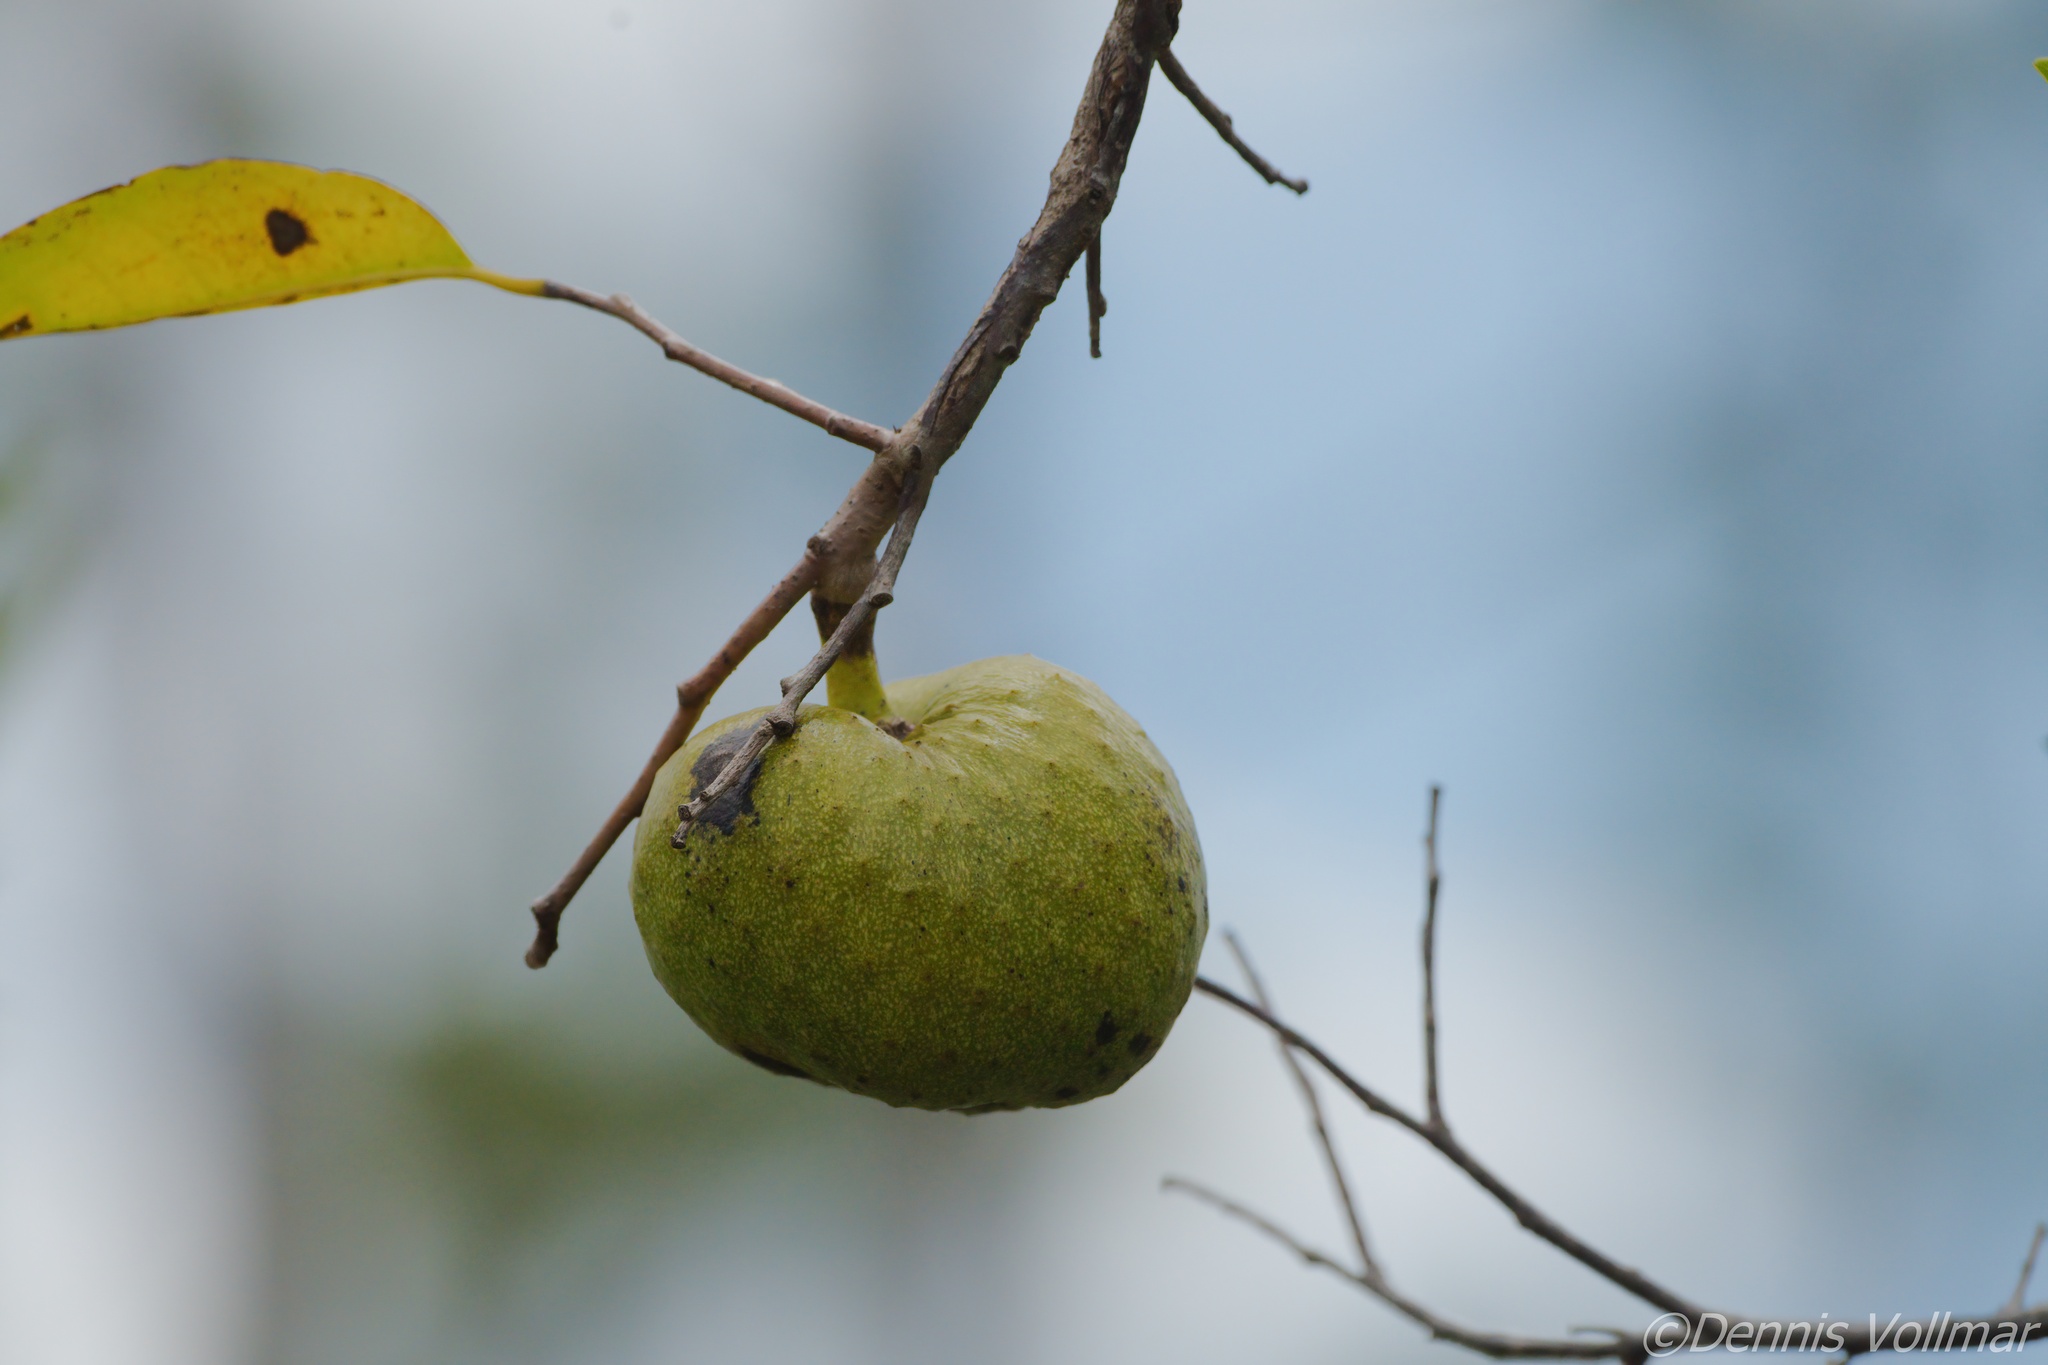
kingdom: Plantae
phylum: Tracheophyta
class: Magnoliopsida
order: Magnoliales
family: Annonaceae
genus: Annona
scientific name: Annona glabra
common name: Monkey apple
